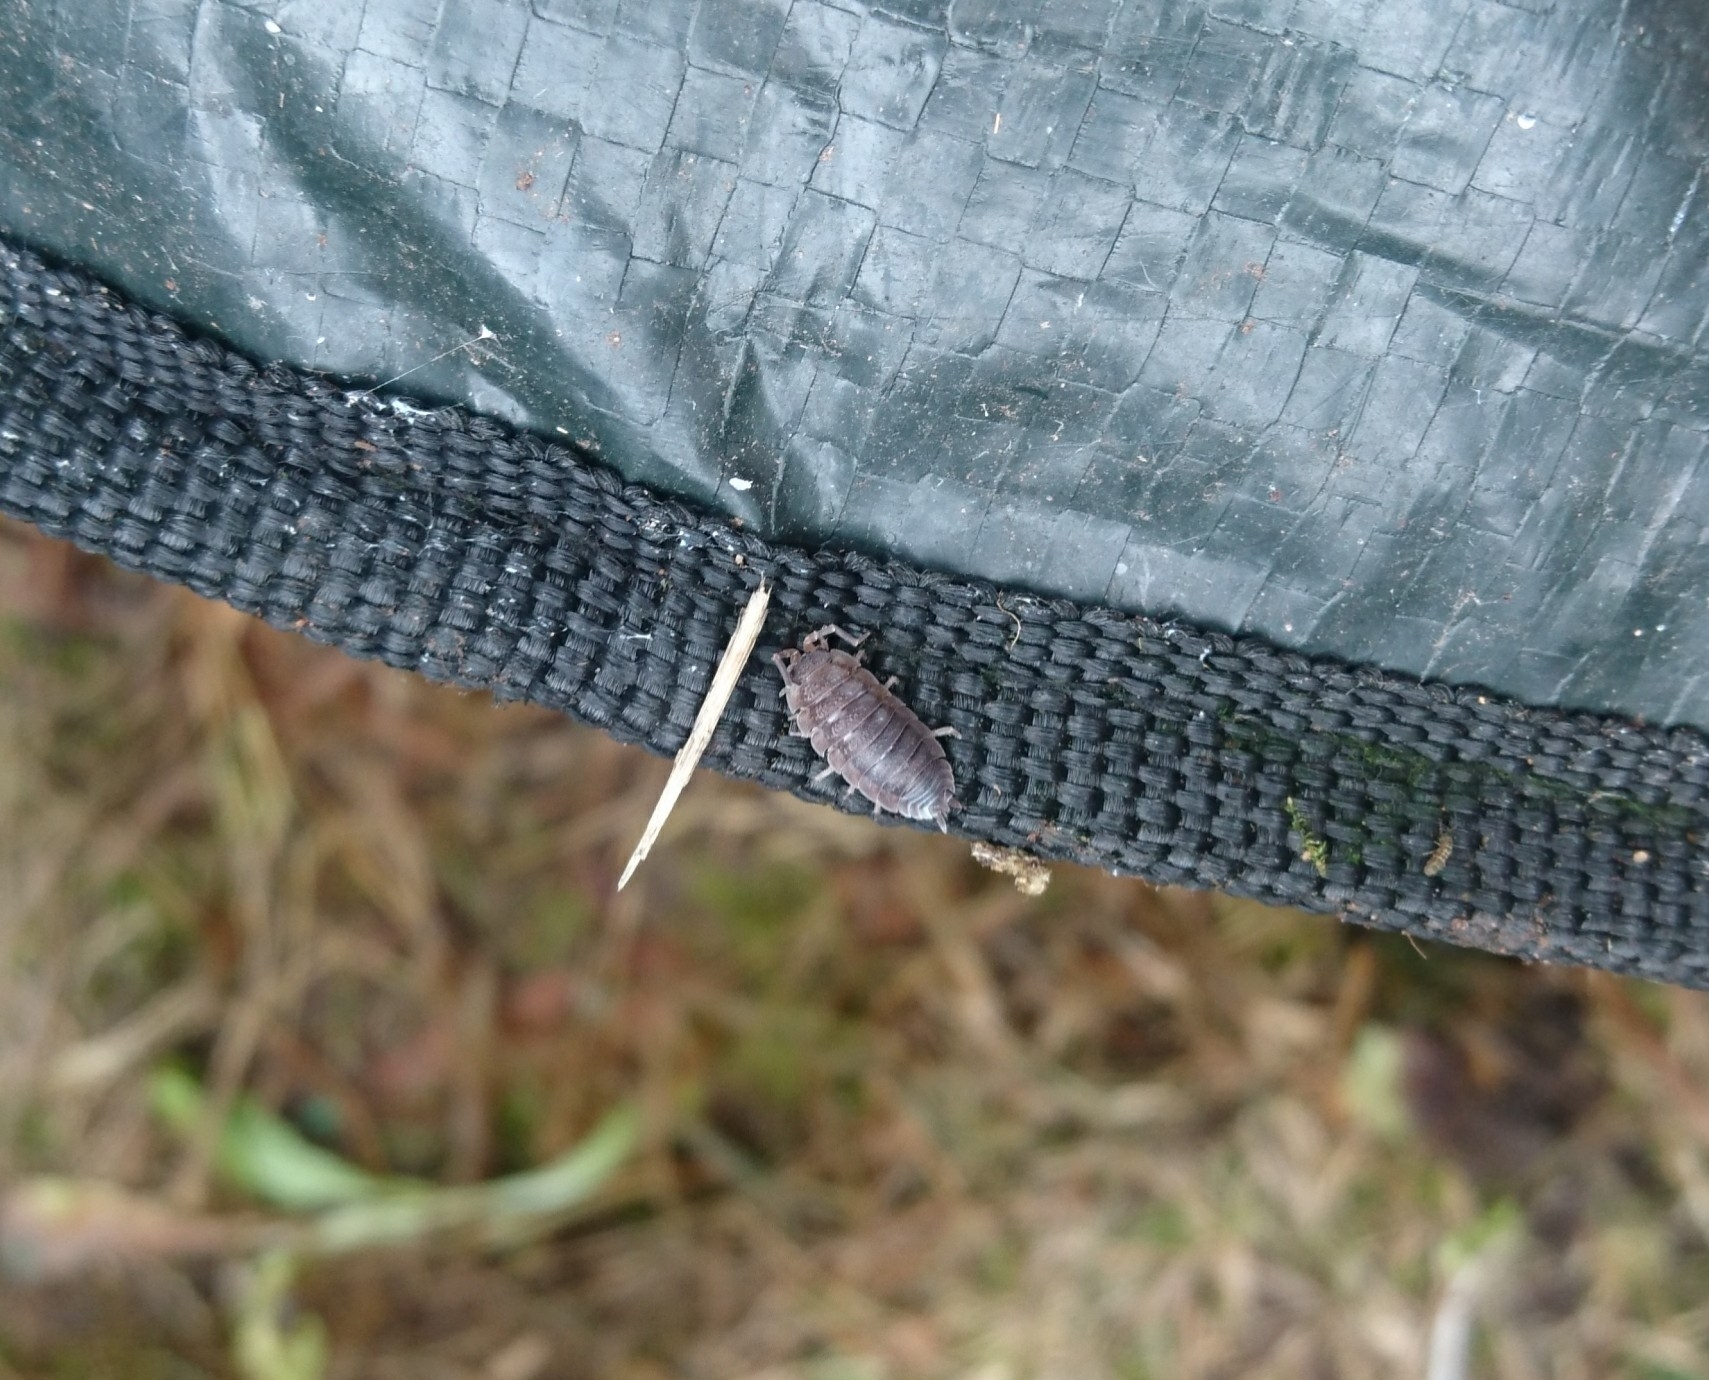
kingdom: Animalia
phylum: Arthropoda
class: Malacostraca
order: Isopoda
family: Porcellionidae
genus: Porcellio
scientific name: Porcellio scaber
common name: Common rough woodlouse
